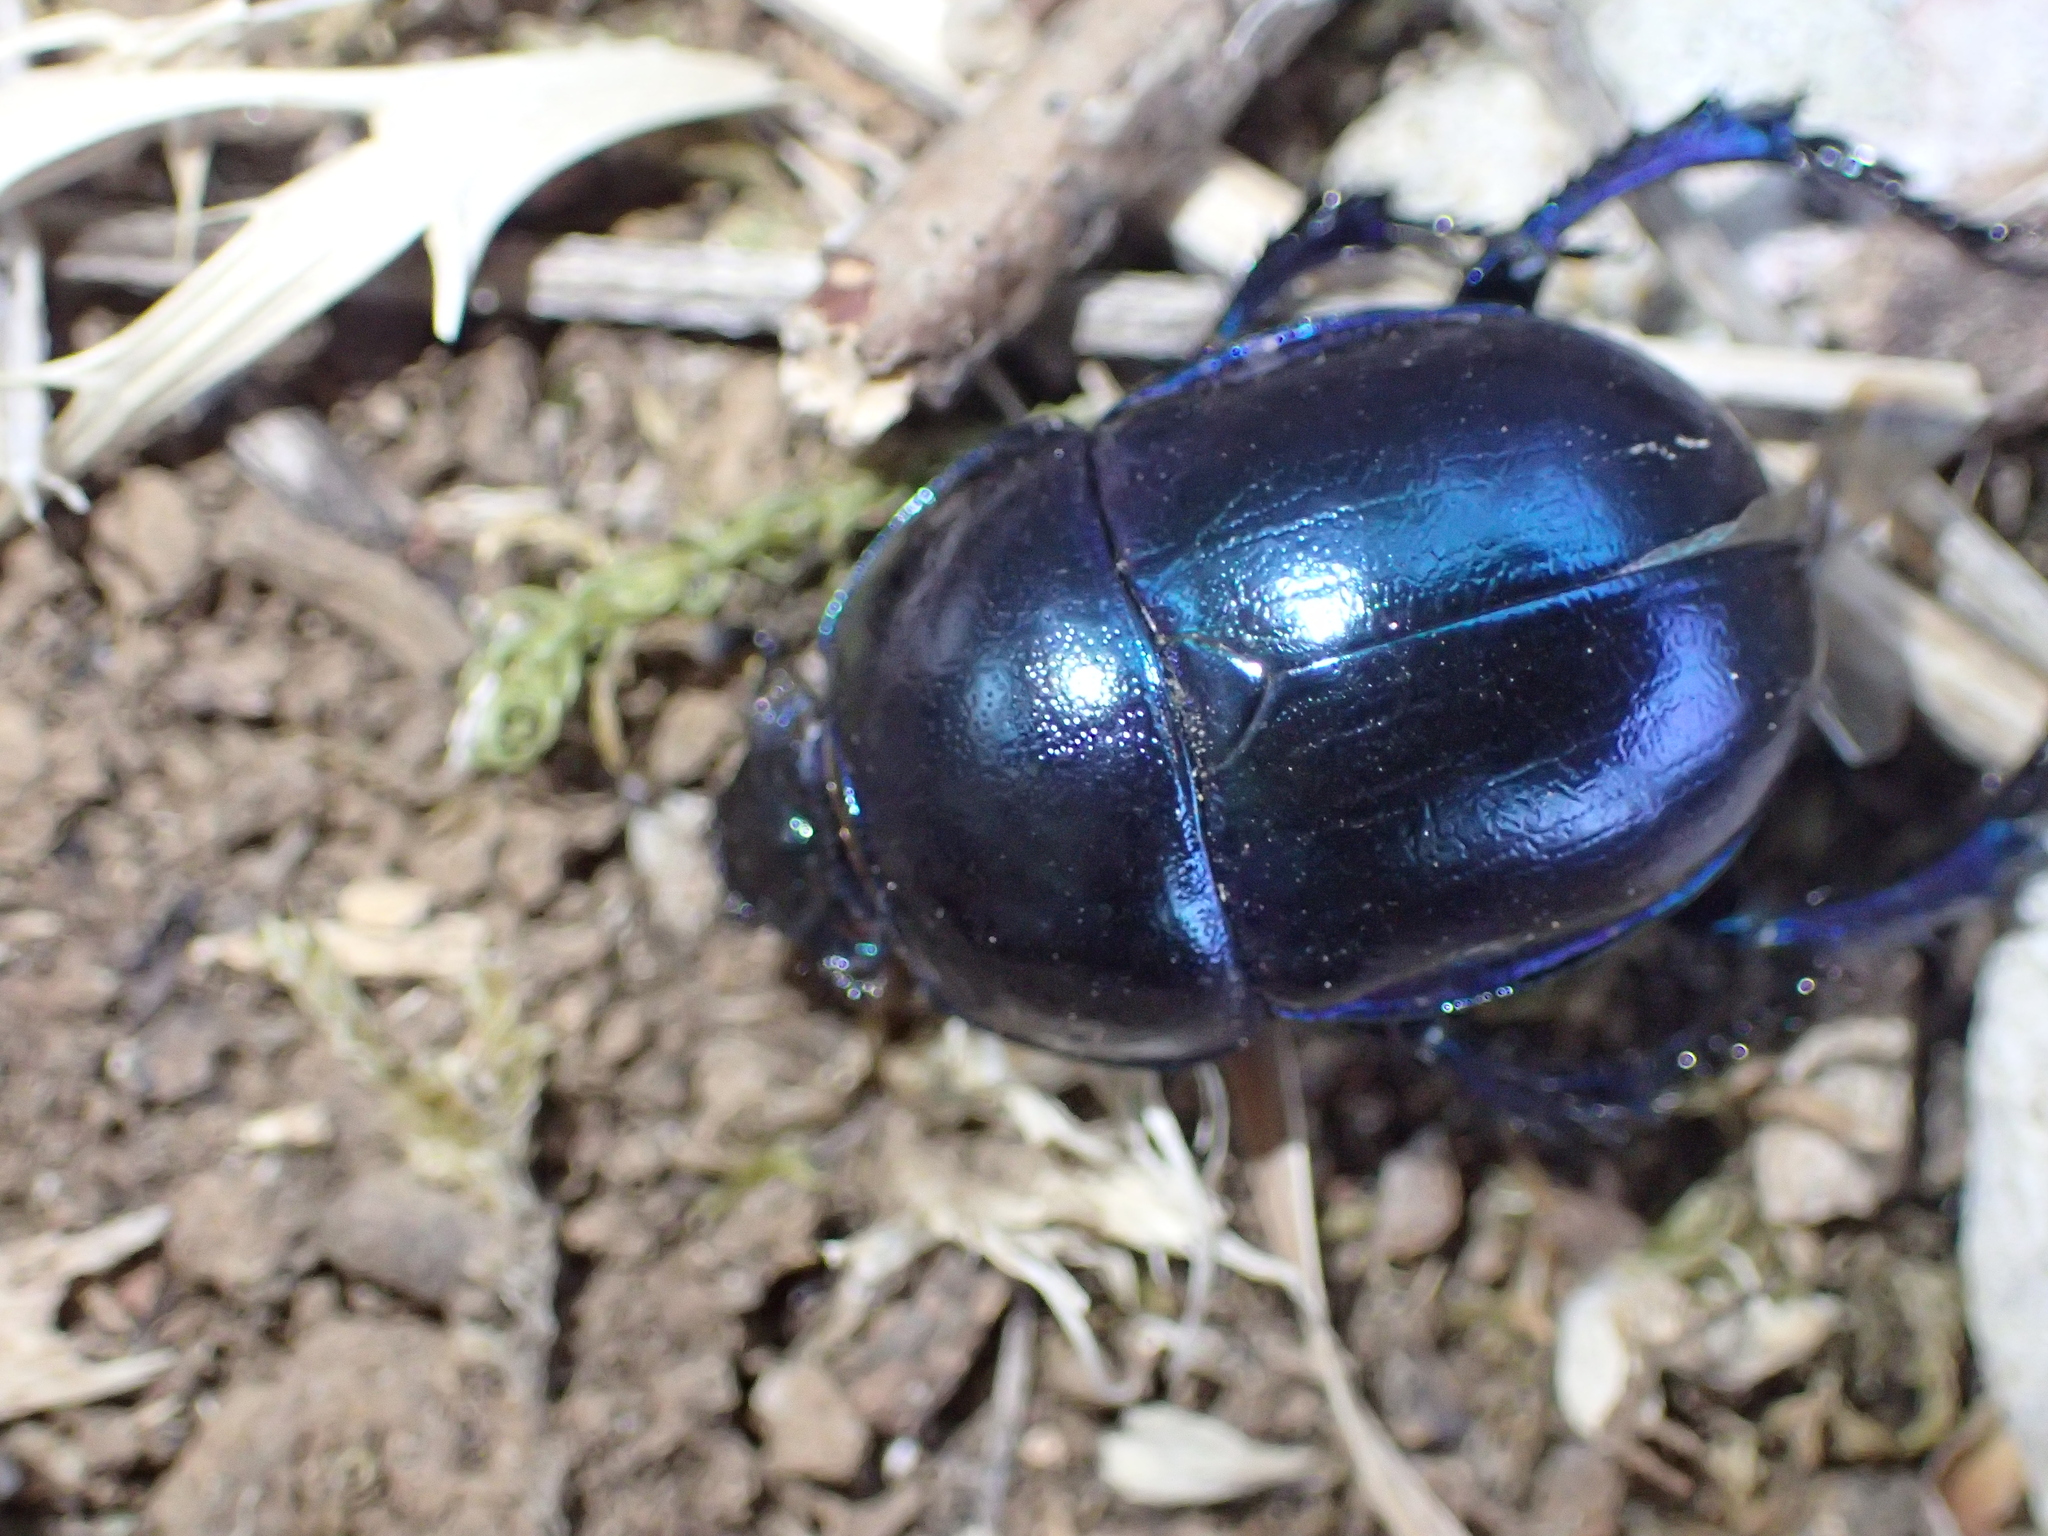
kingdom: Animalia
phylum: Arthropoda
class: Insecta
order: Coleoptera
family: Geotrupidae
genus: Trypocopris
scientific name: Trypocopris vernalis
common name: Spring dumbledor
